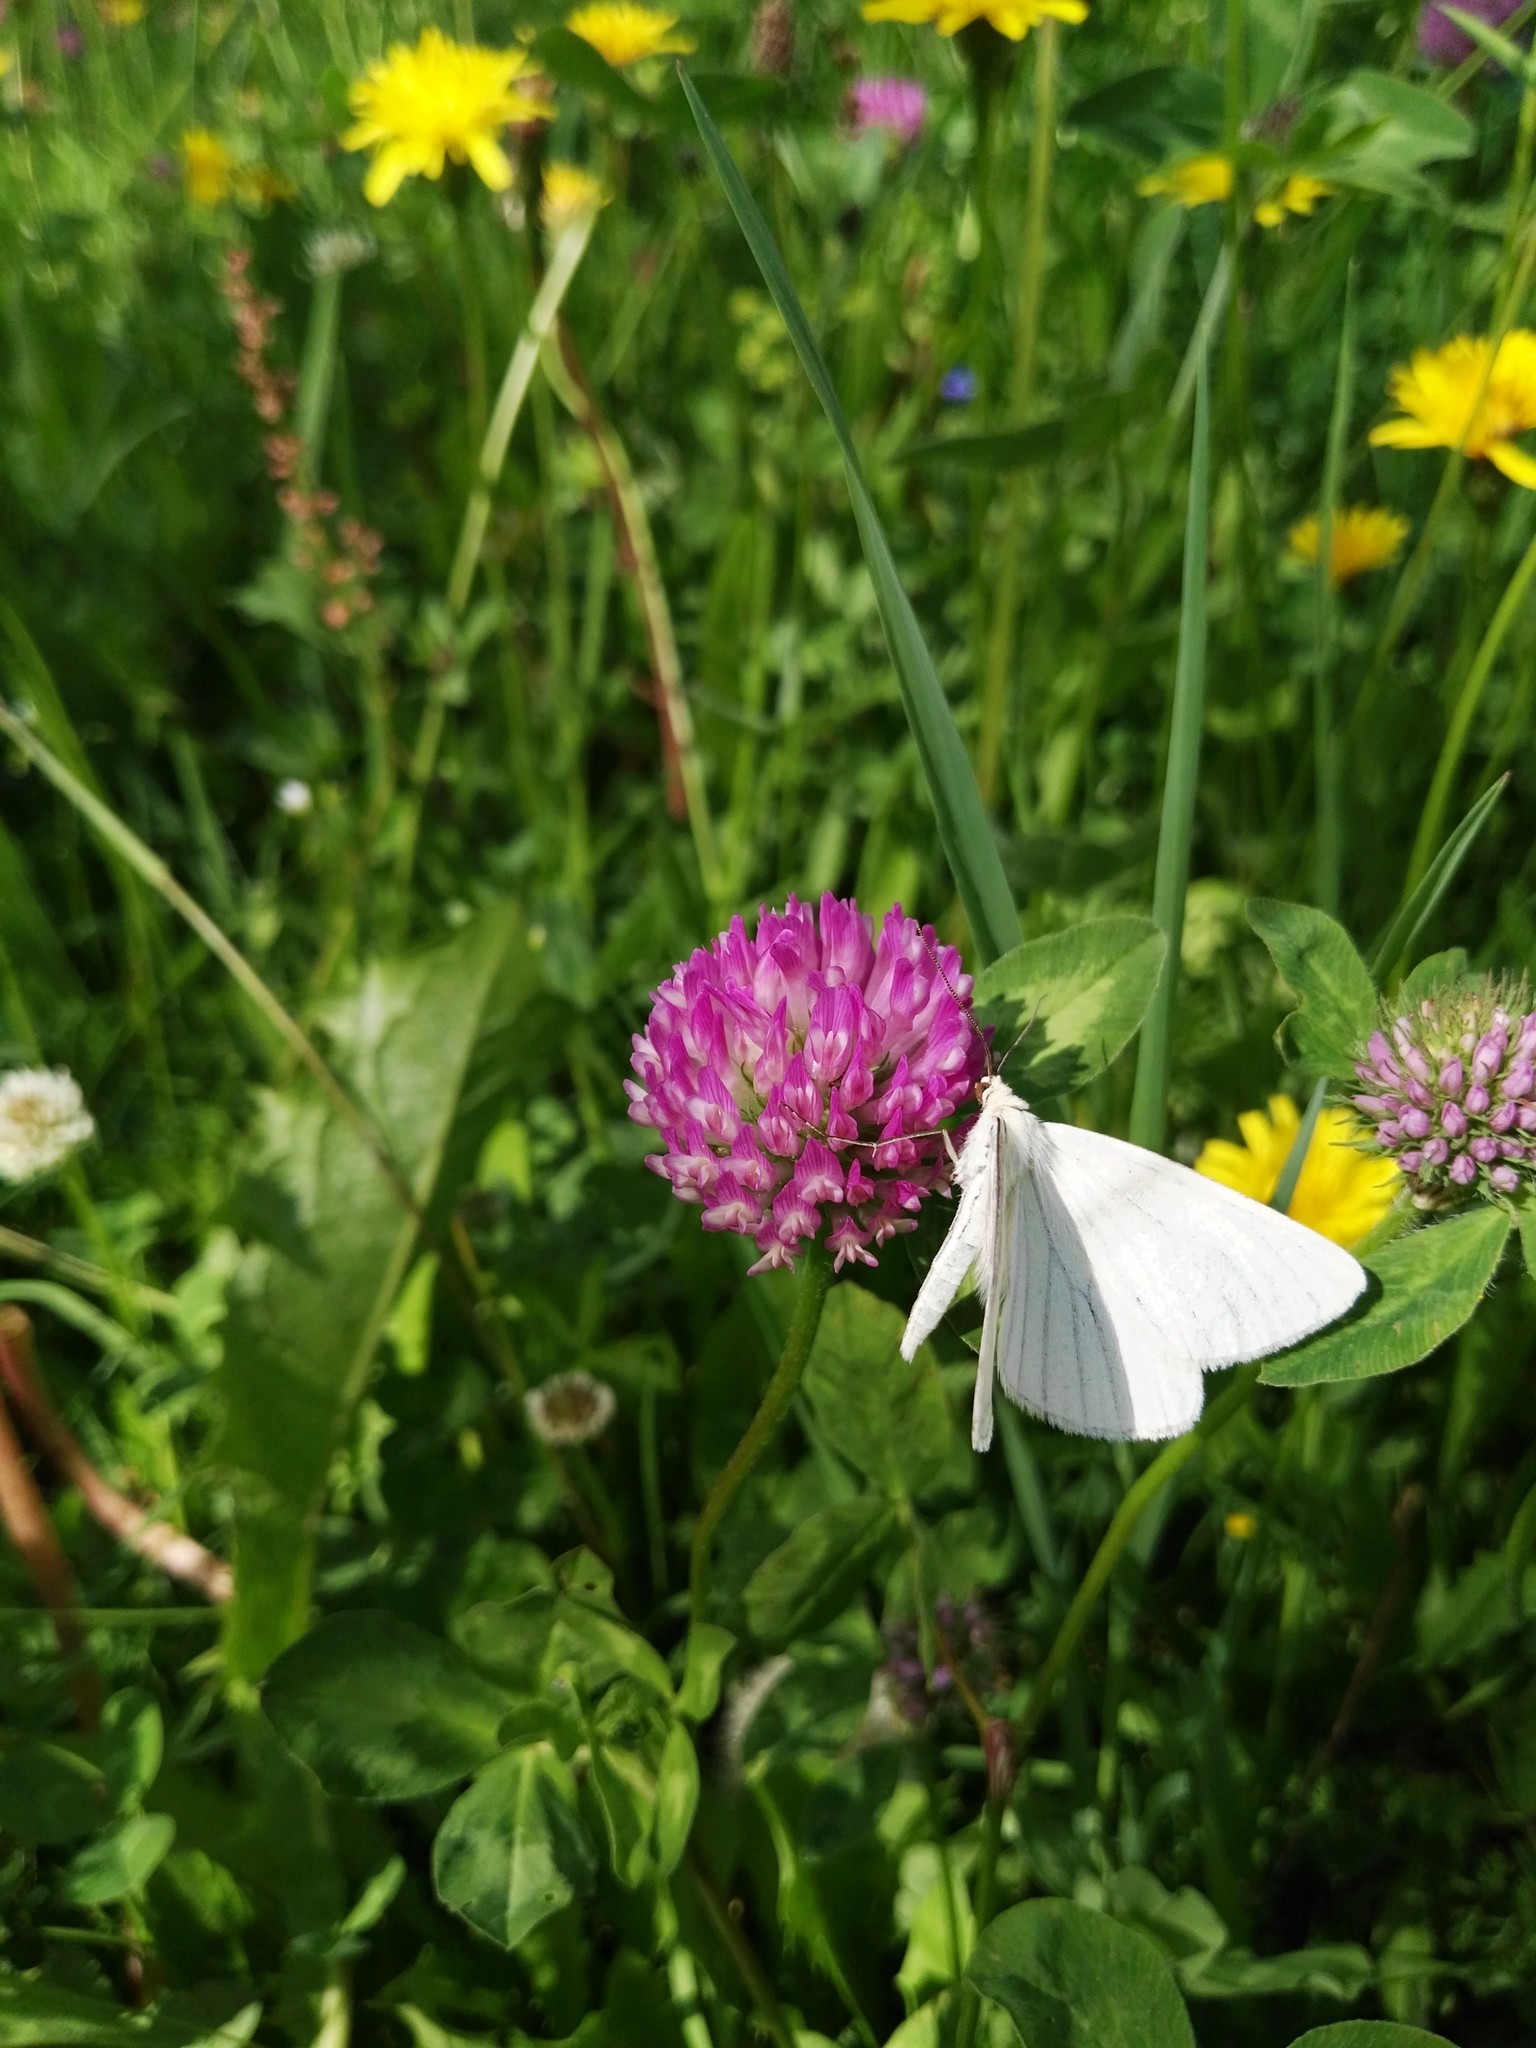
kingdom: Animalia
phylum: Arthropoda
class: Insecta
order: Lepidoptera
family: Geometridae
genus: Siona
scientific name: Siona lineata
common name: Black-veined moth
